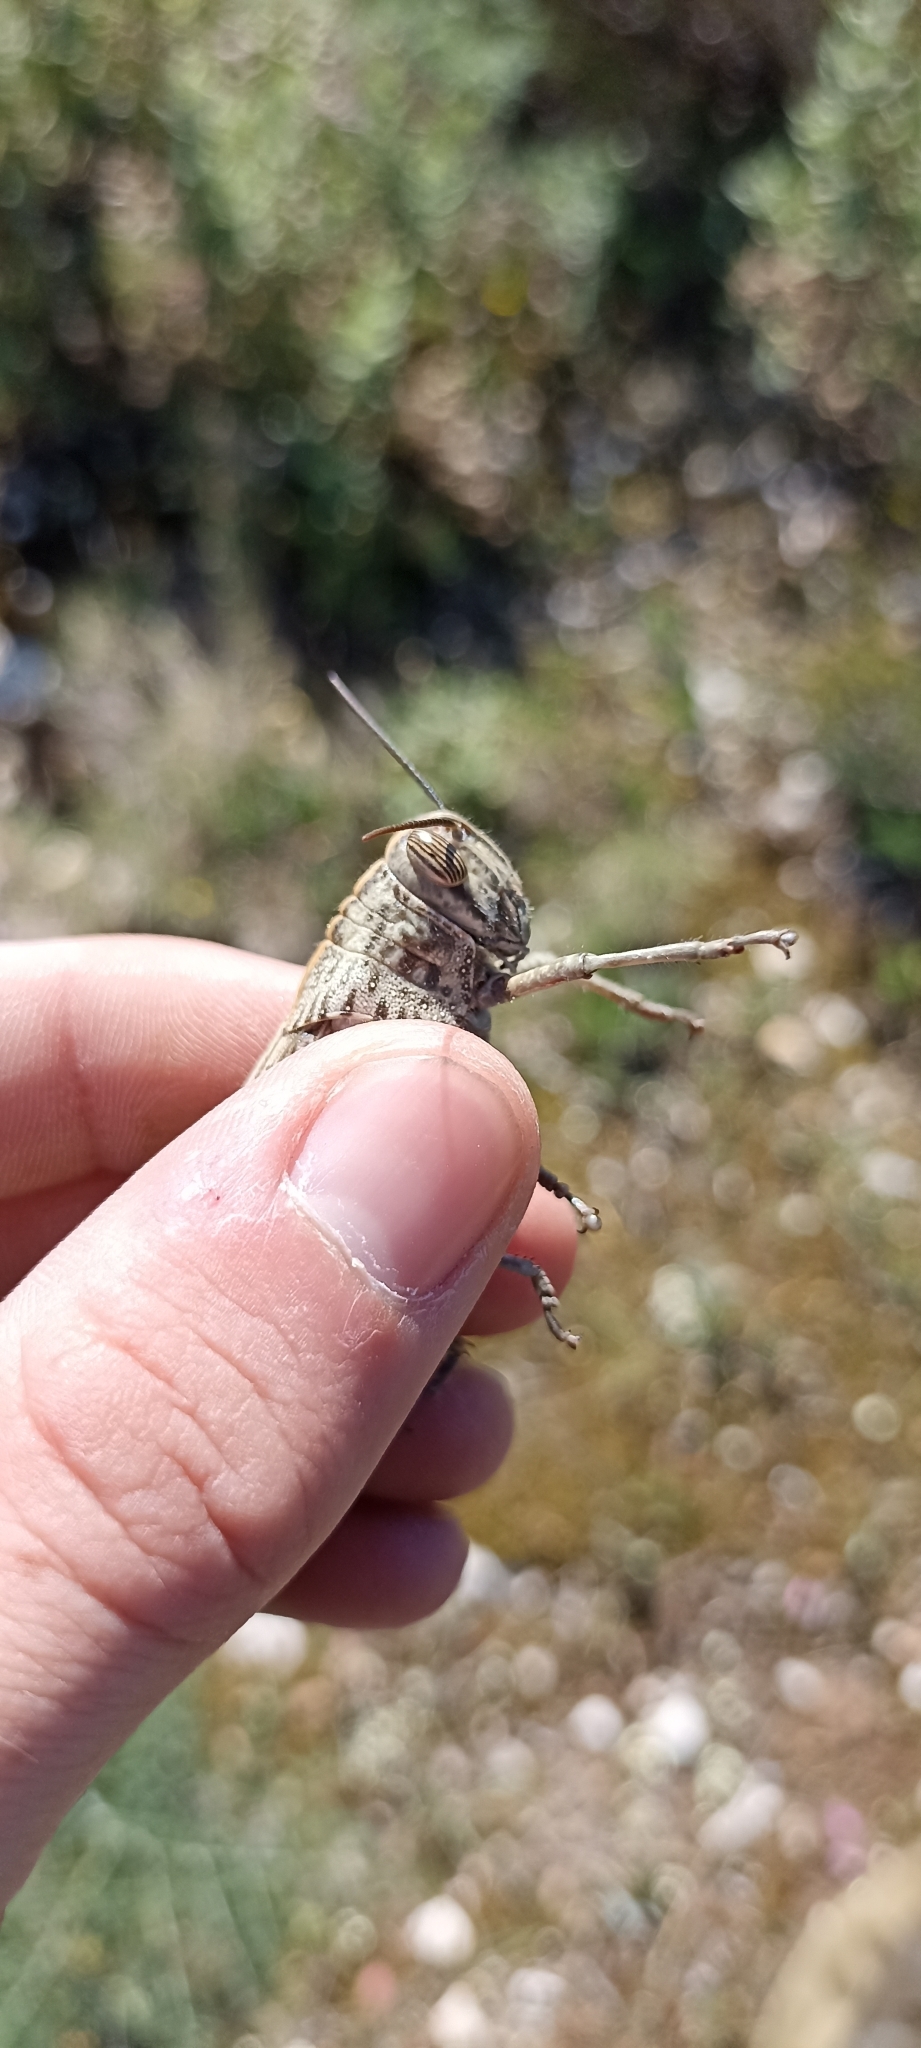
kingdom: Animalia
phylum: Arthropoda
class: Insecta
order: Orthoptera
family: Acrididae
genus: Anacridium
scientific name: Anacridium aegyptium
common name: Egyptian grasshopper
